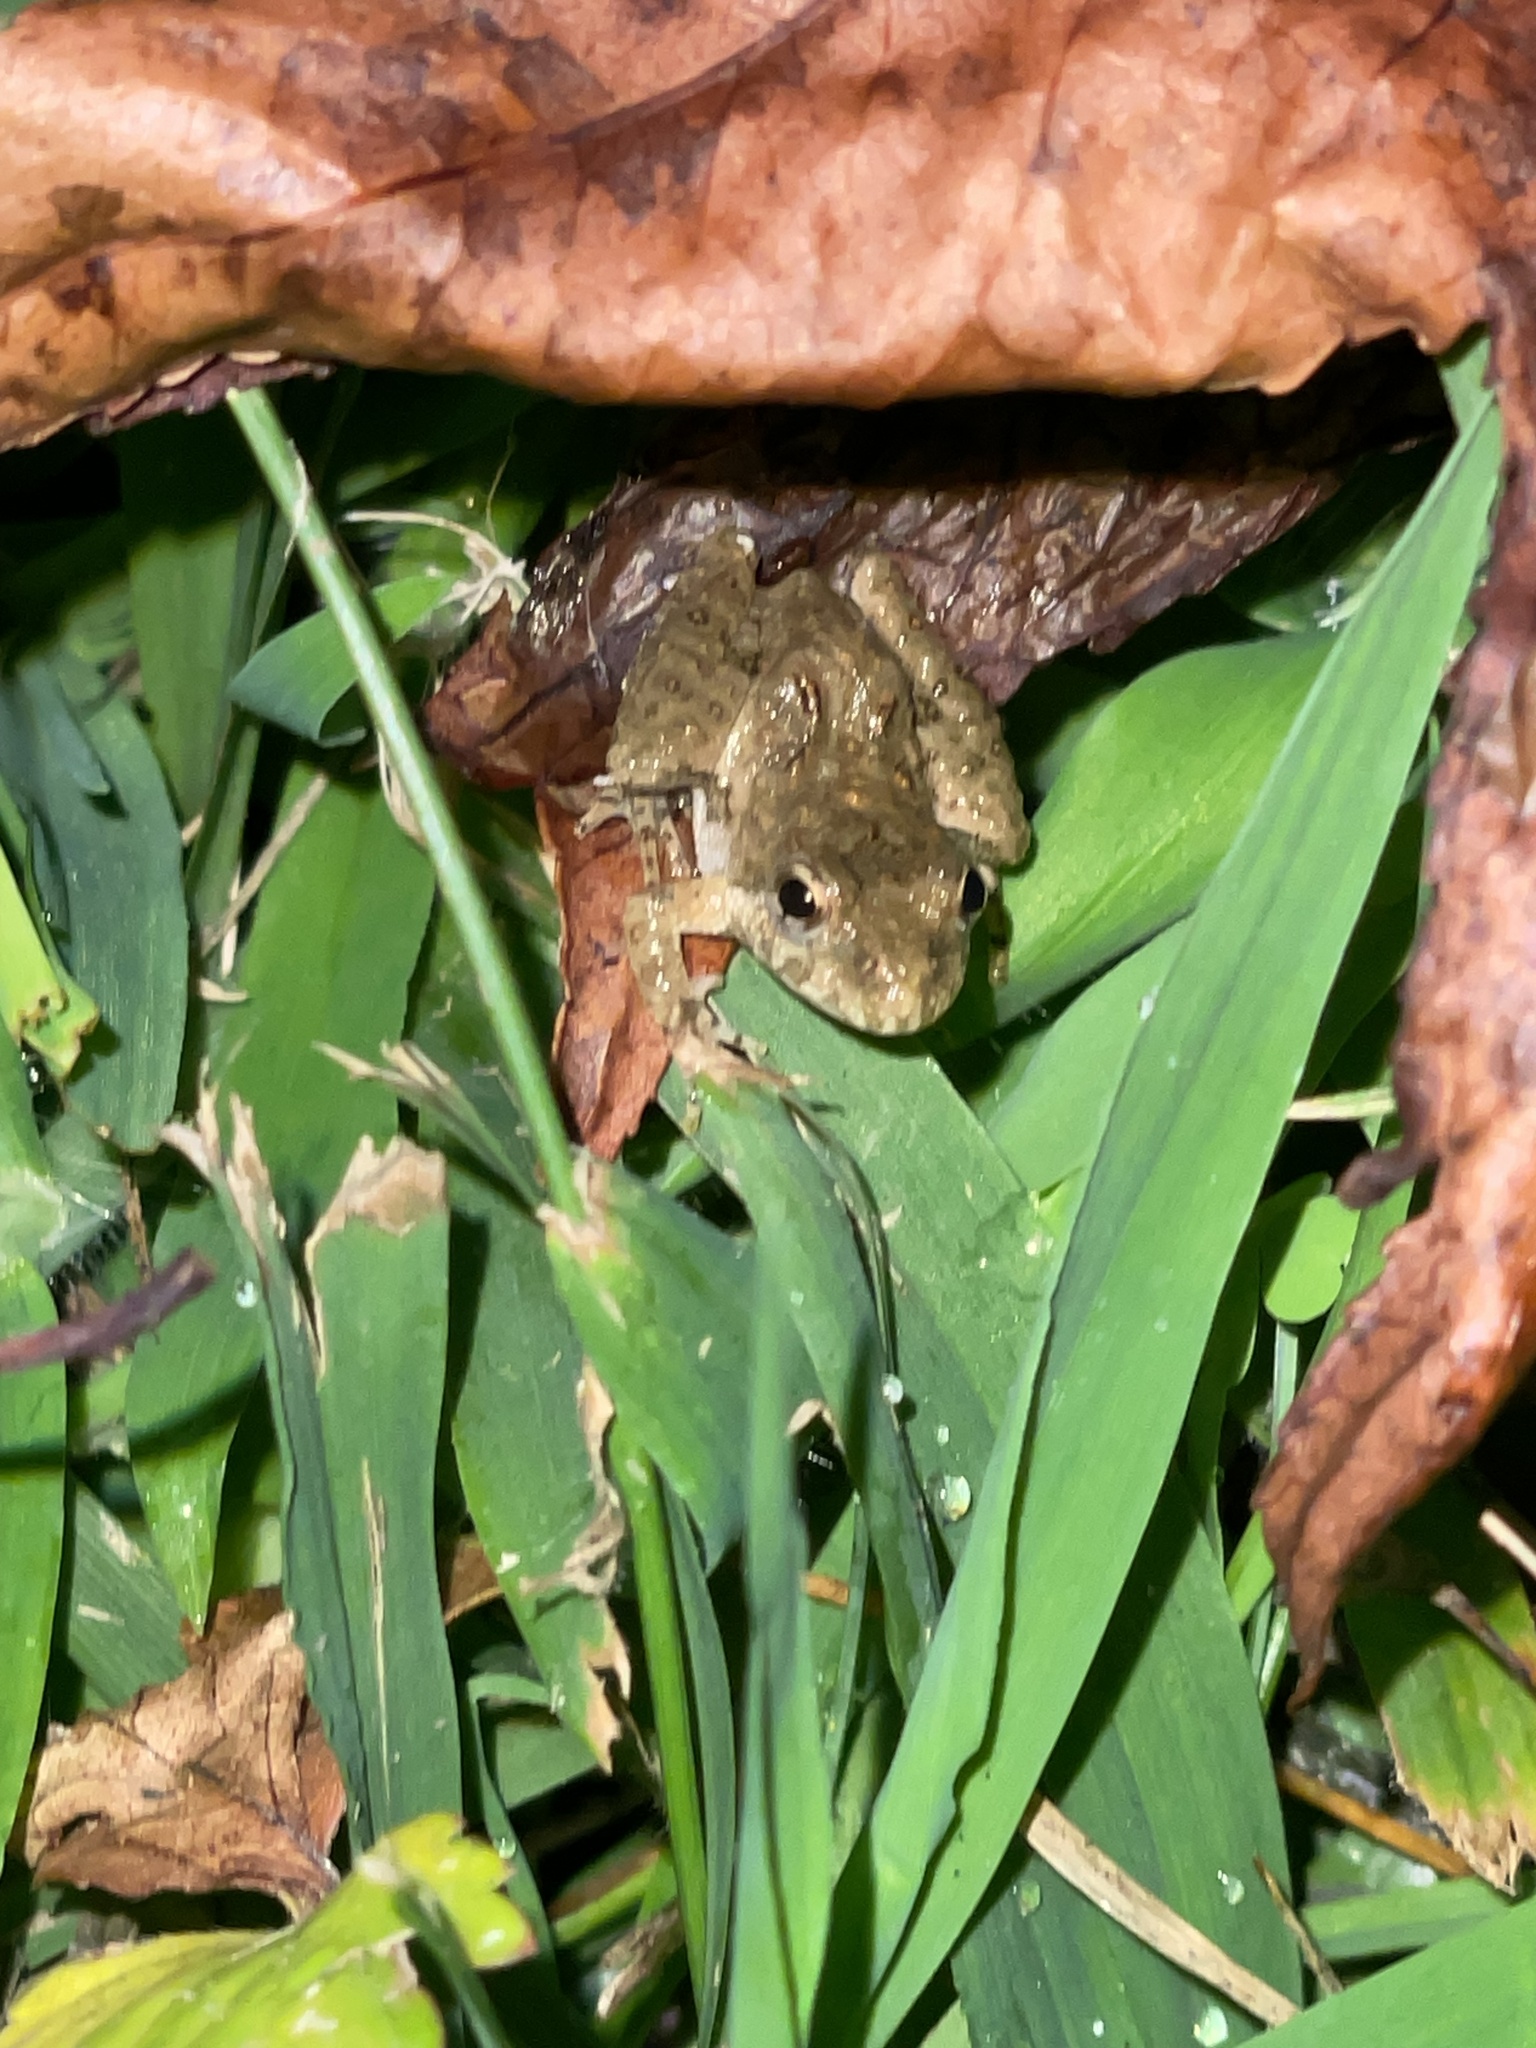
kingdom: Animalia
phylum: Chordata
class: Amphibia
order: Anura
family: Hylidae
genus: Acris
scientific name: Acris crepitans
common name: Northern cricket frog
